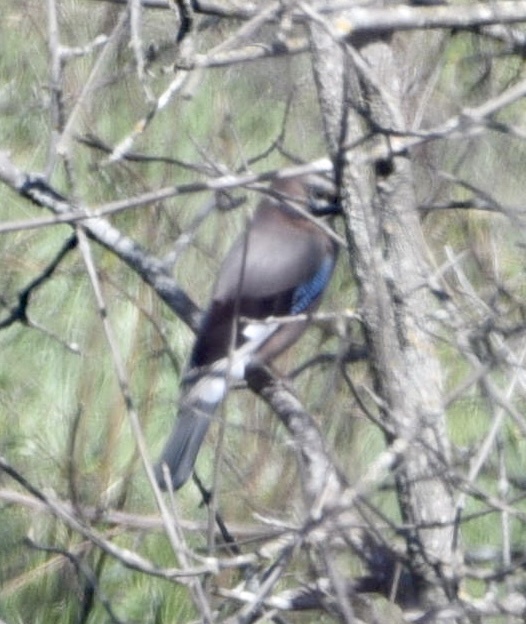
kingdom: Animalia
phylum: Chordata
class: Aves
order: Passeriformes
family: Corvidae
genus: Garrulus
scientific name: Garrulus glandarius
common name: Eurasian jay
